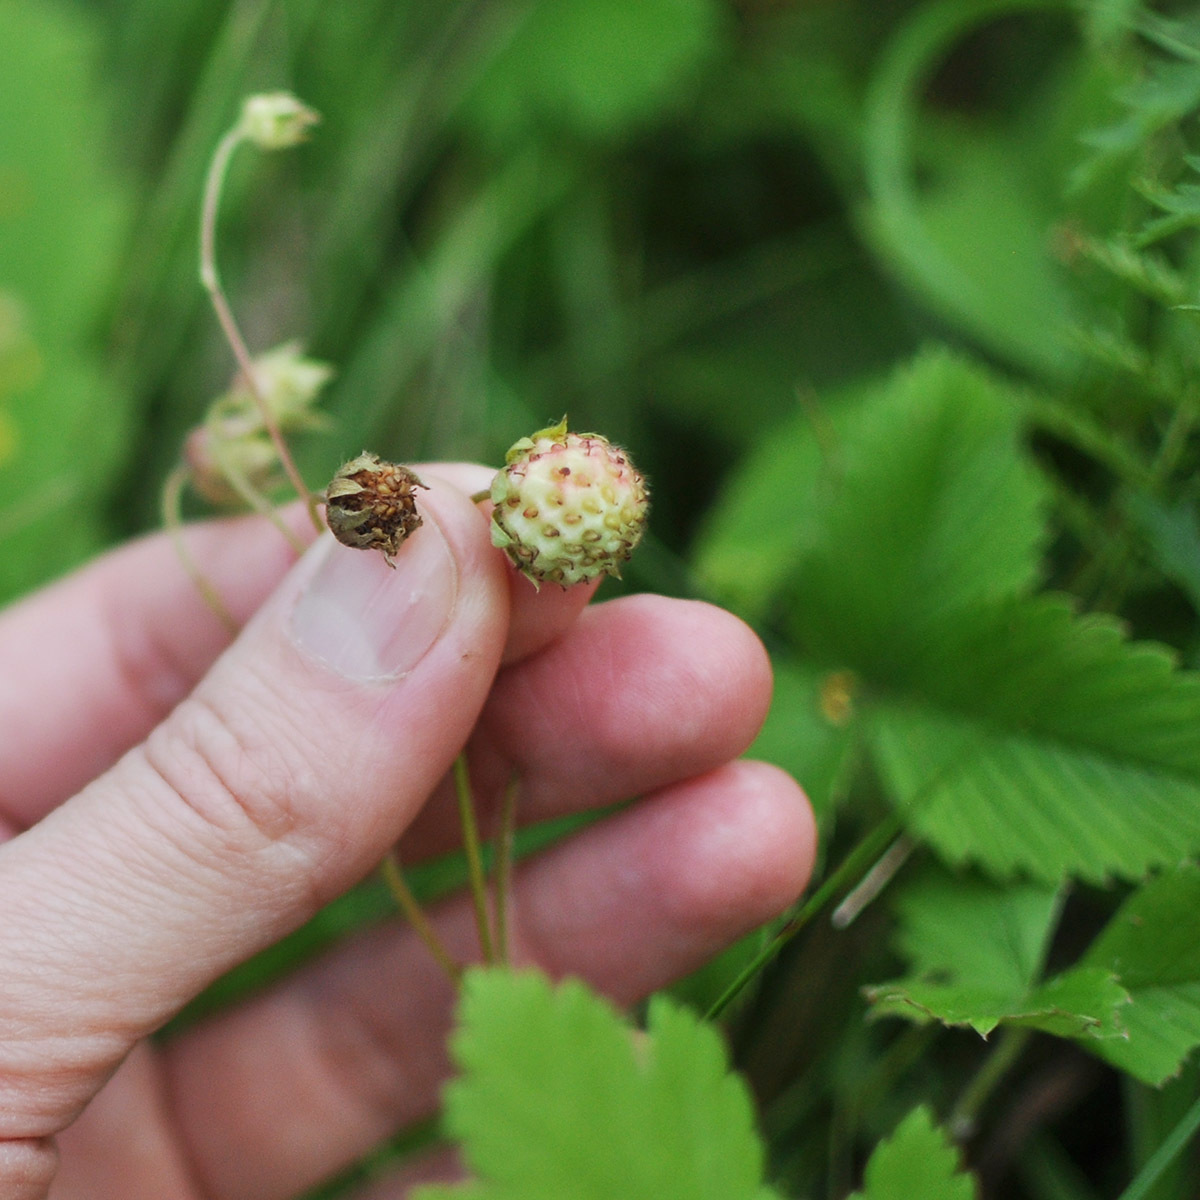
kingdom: Plantae
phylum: Tracheophyta
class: Magnoliopsida
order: Rosales
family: Rosaceae
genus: Fragaria
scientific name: Fragaria viridis
